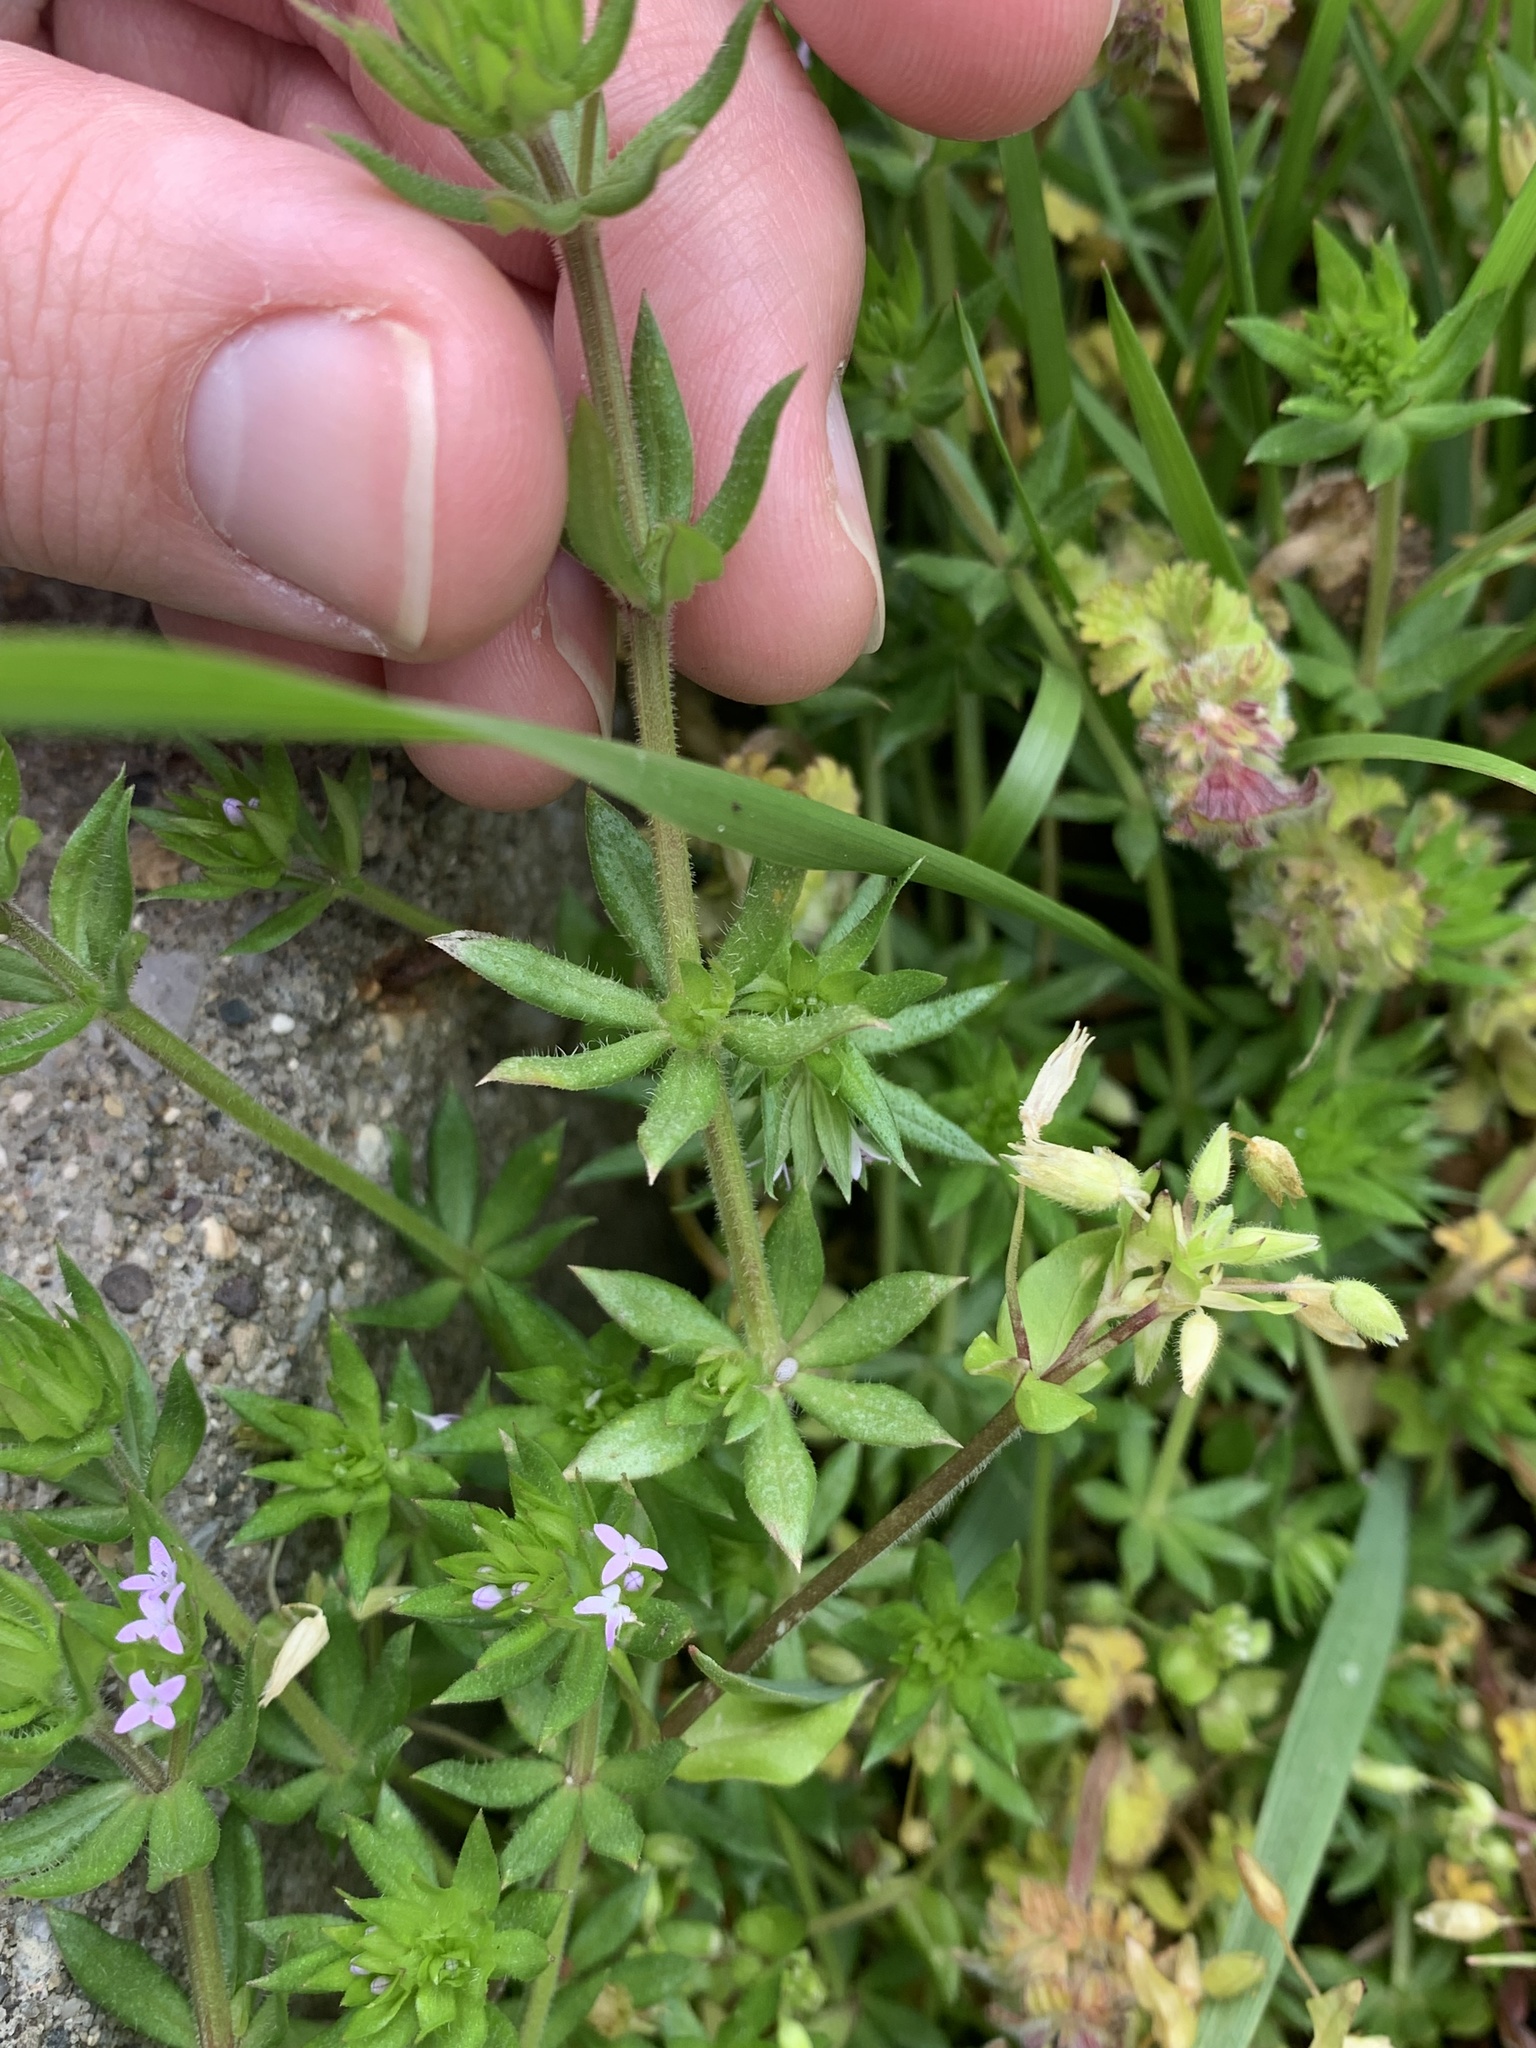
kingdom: Plantae
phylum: Tracheophyta
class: Magnoliopsida
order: Gentianales
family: Rubiaceae
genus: Sherardia
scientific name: Sherardia arvensis
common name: Field madder
